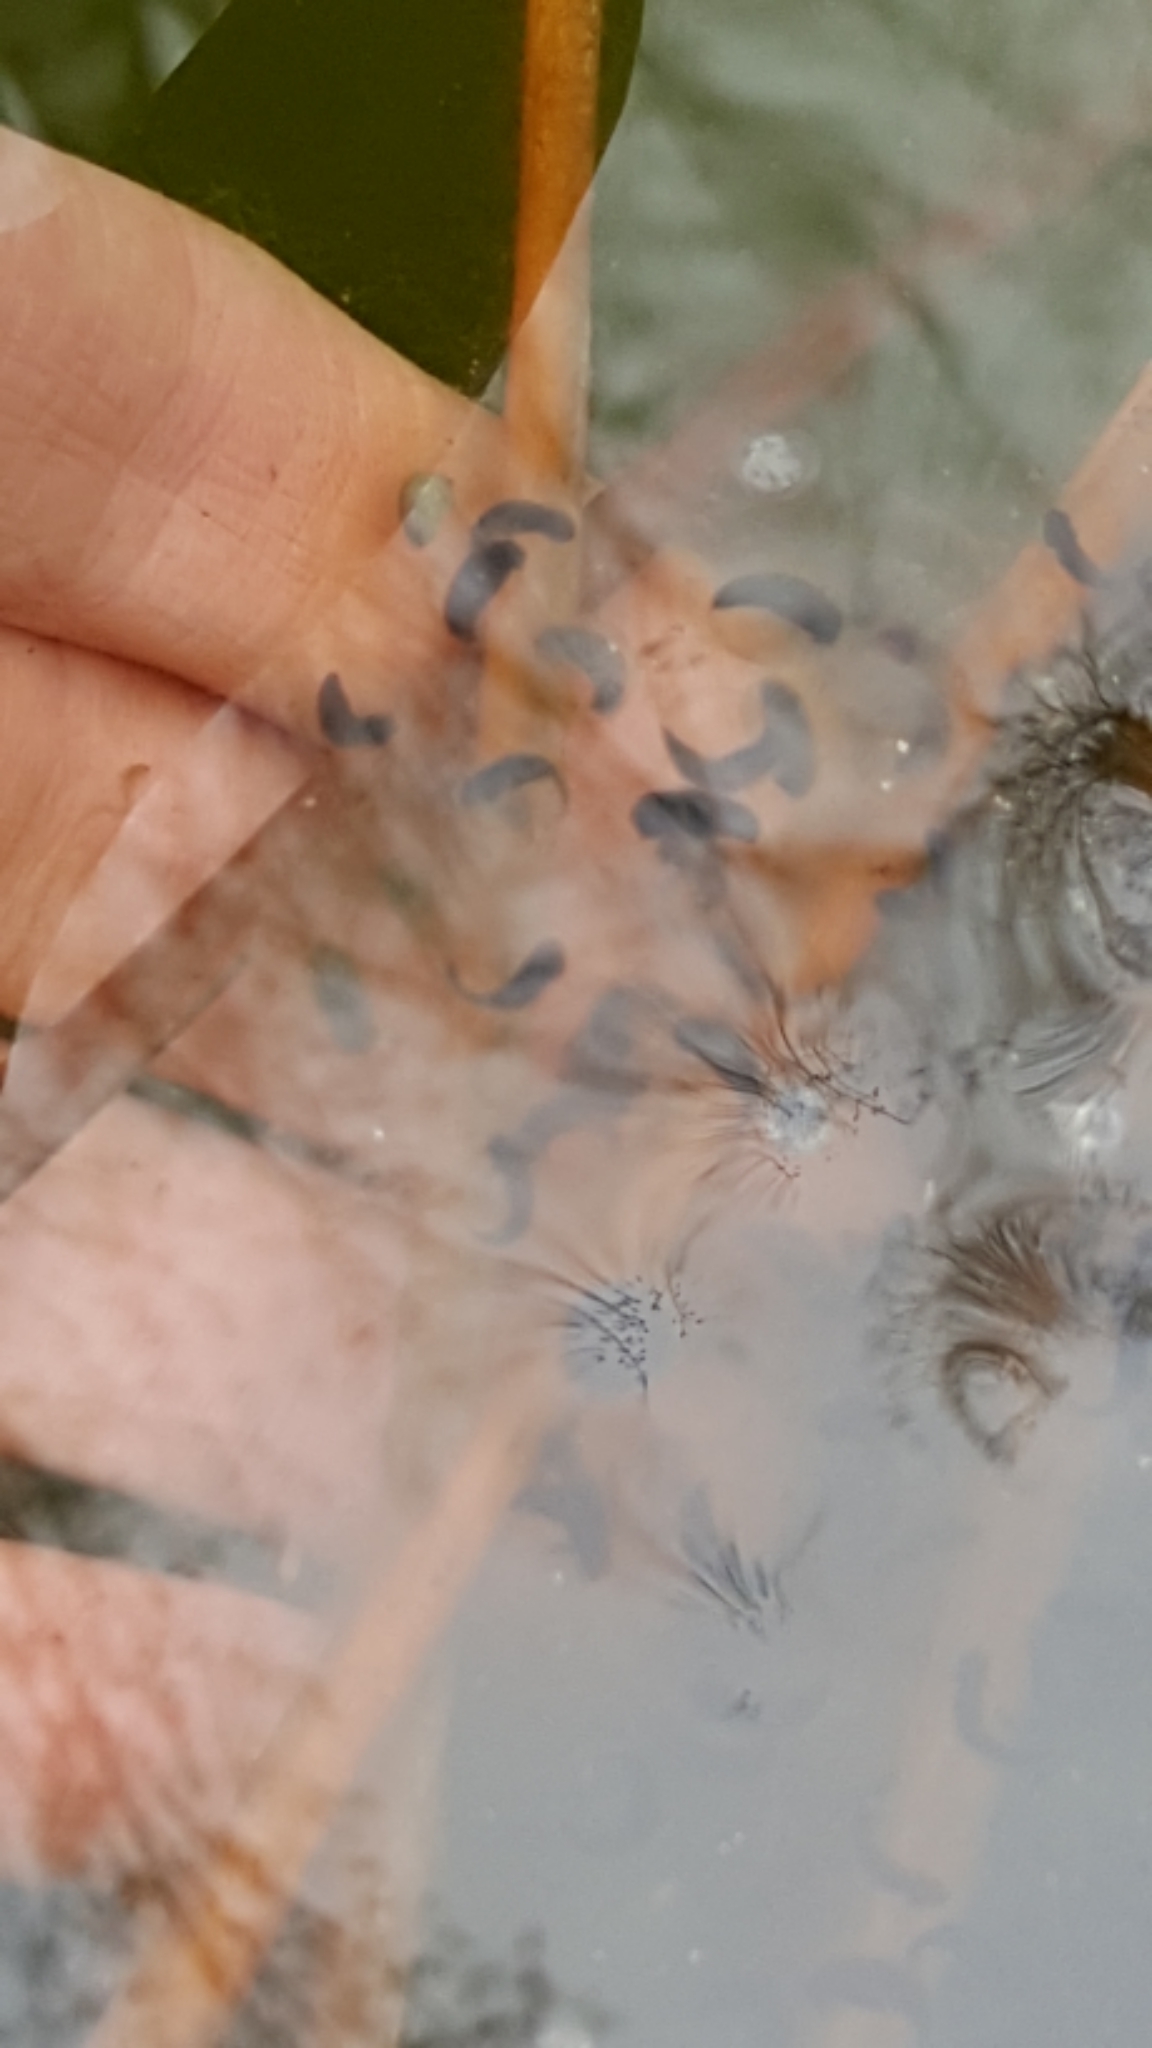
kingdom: Animalia
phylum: Chordata
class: Amphibia
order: Anura
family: Ranidae
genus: Lithobates
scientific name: Lithobates sylvaticus
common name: Wood frog
